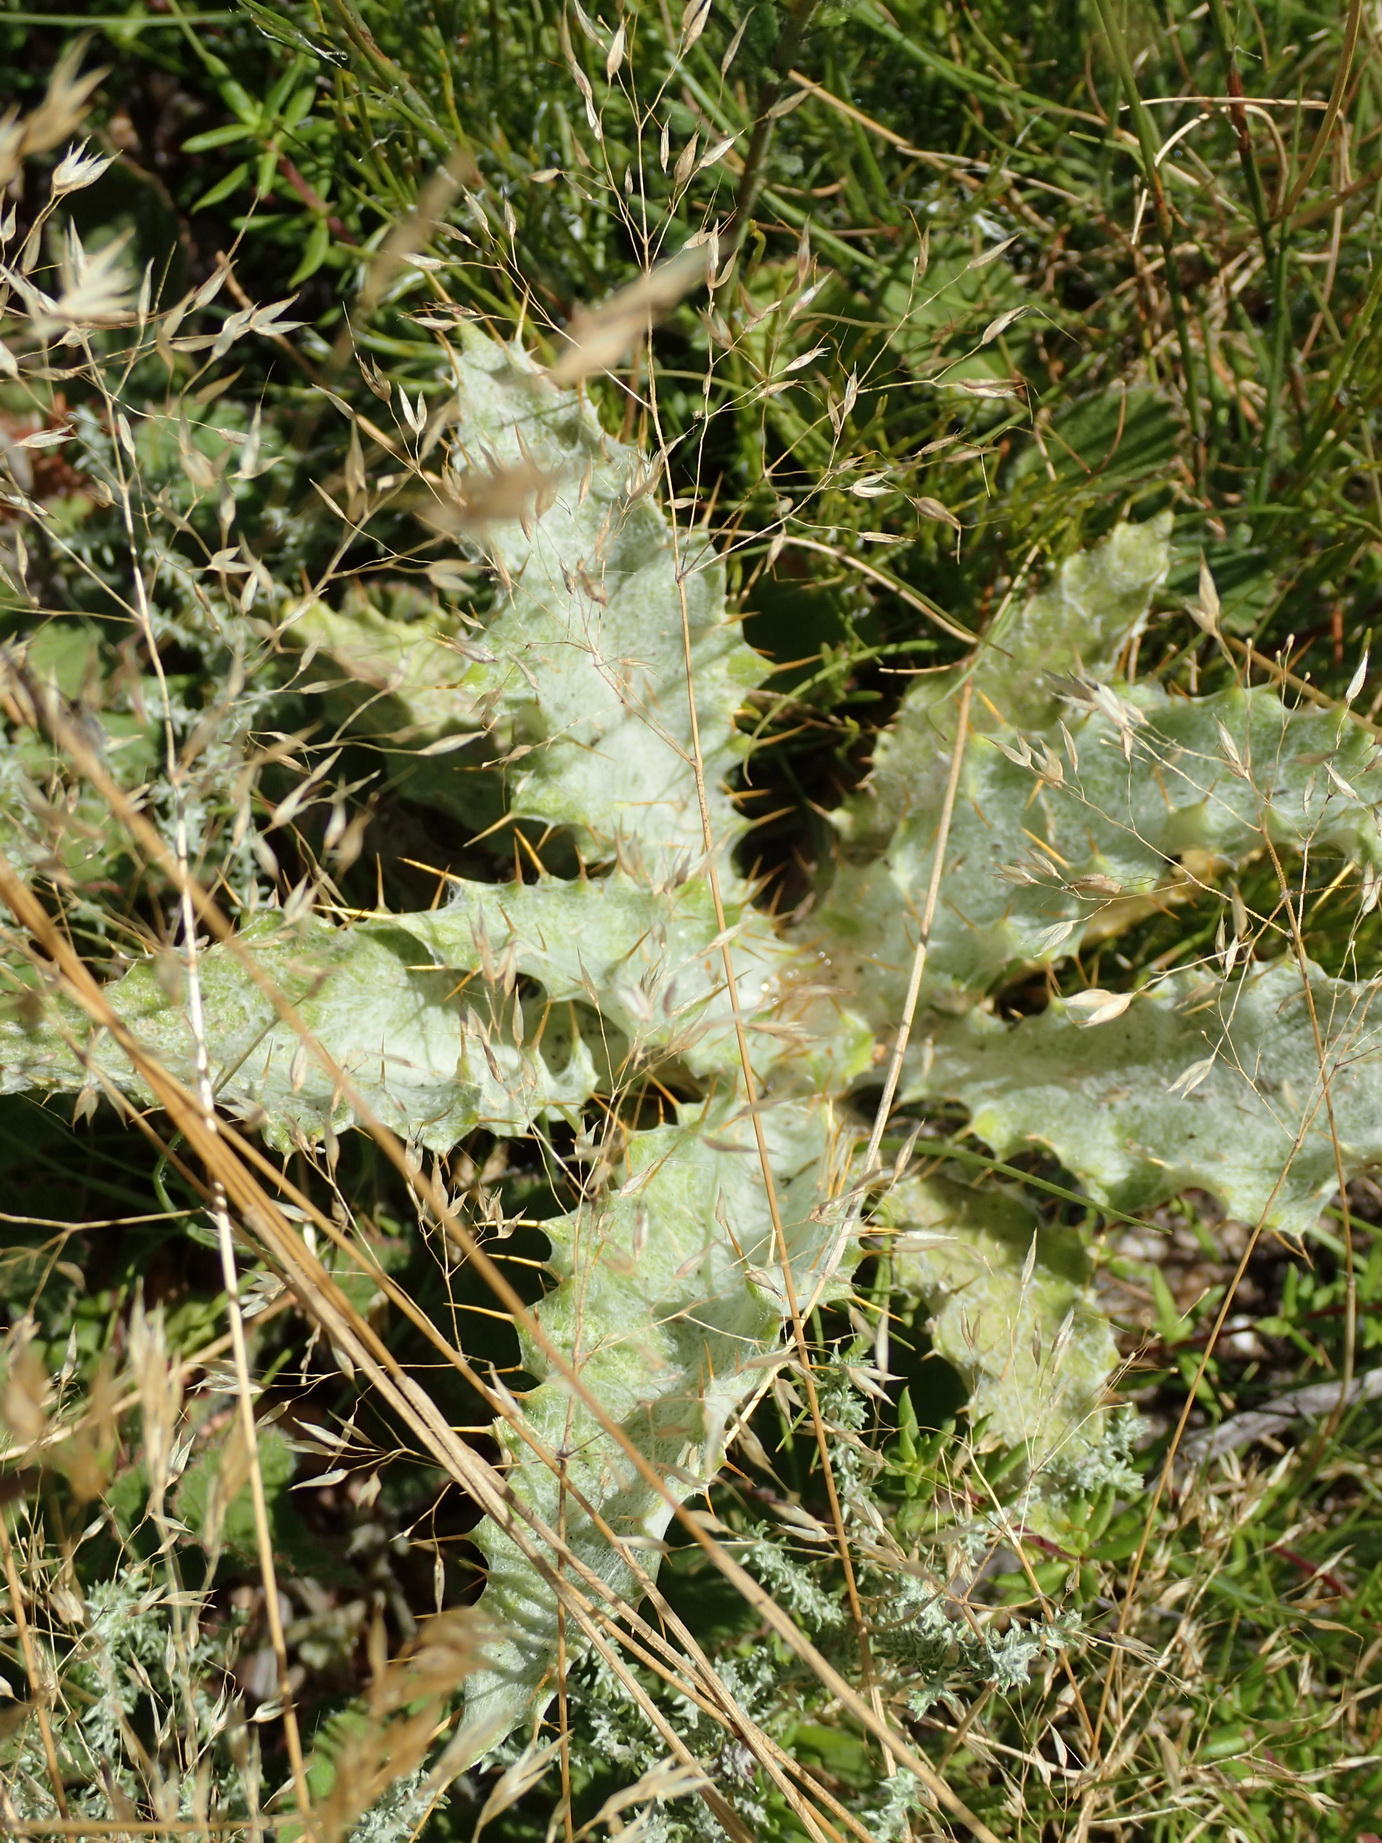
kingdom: Plantae
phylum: Tracheophyta
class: Magnoliopsida
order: Asterales
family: Asteraceae
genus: Berkheya
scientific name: Berkheya francisci
